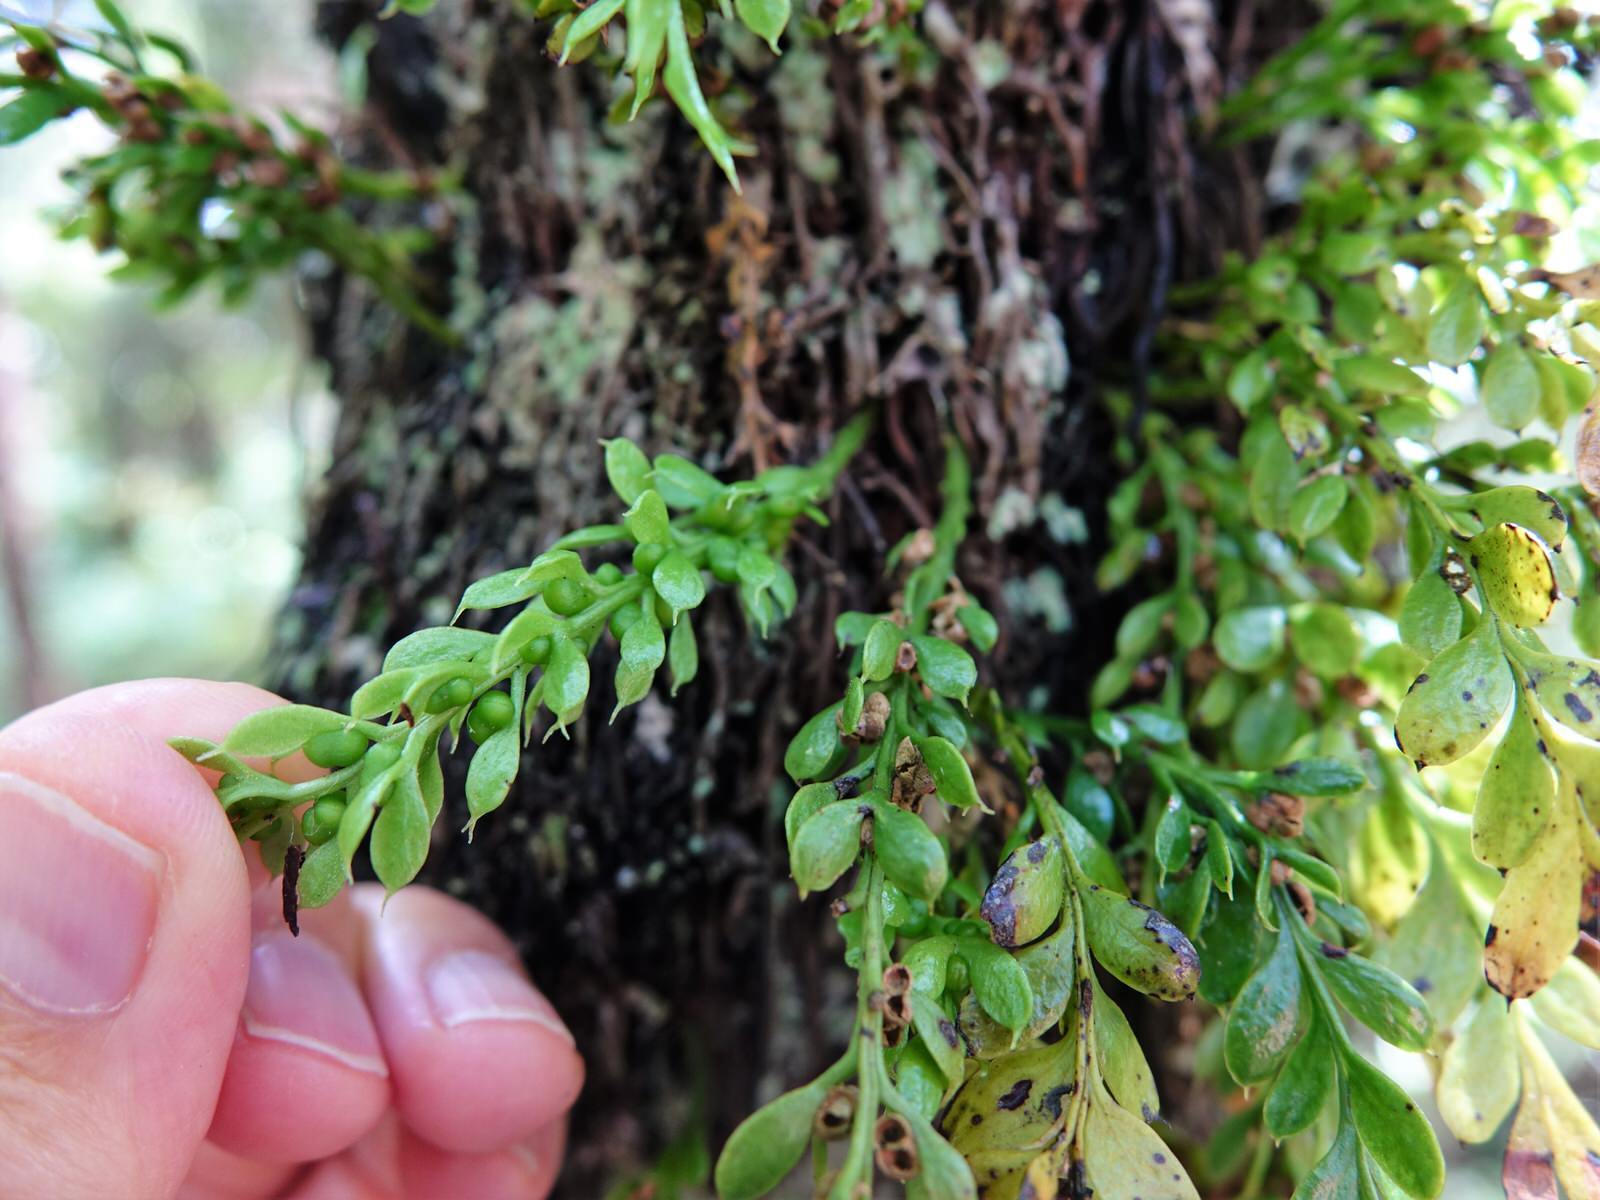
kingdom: Plantae
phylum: Tracheophyta
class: Polypodiopsida
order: Psilotales
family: Psilotaceae
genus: Tmesipteris
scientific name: Tmesipteris lanceolata
